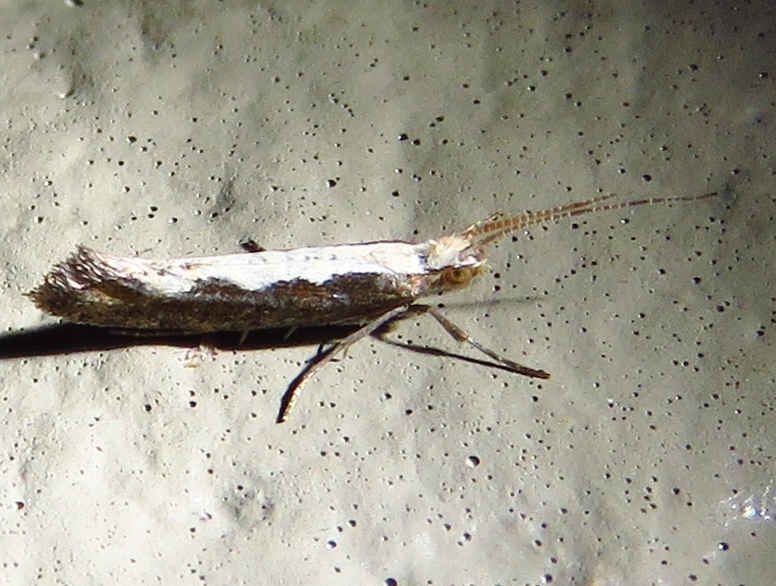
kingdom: Animalia
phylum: Arthropoda
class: Insecta
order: Lepidoptera
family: Plutellidae
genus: Plutella
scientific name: Plutella xylostella
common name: Diamond-back moth
